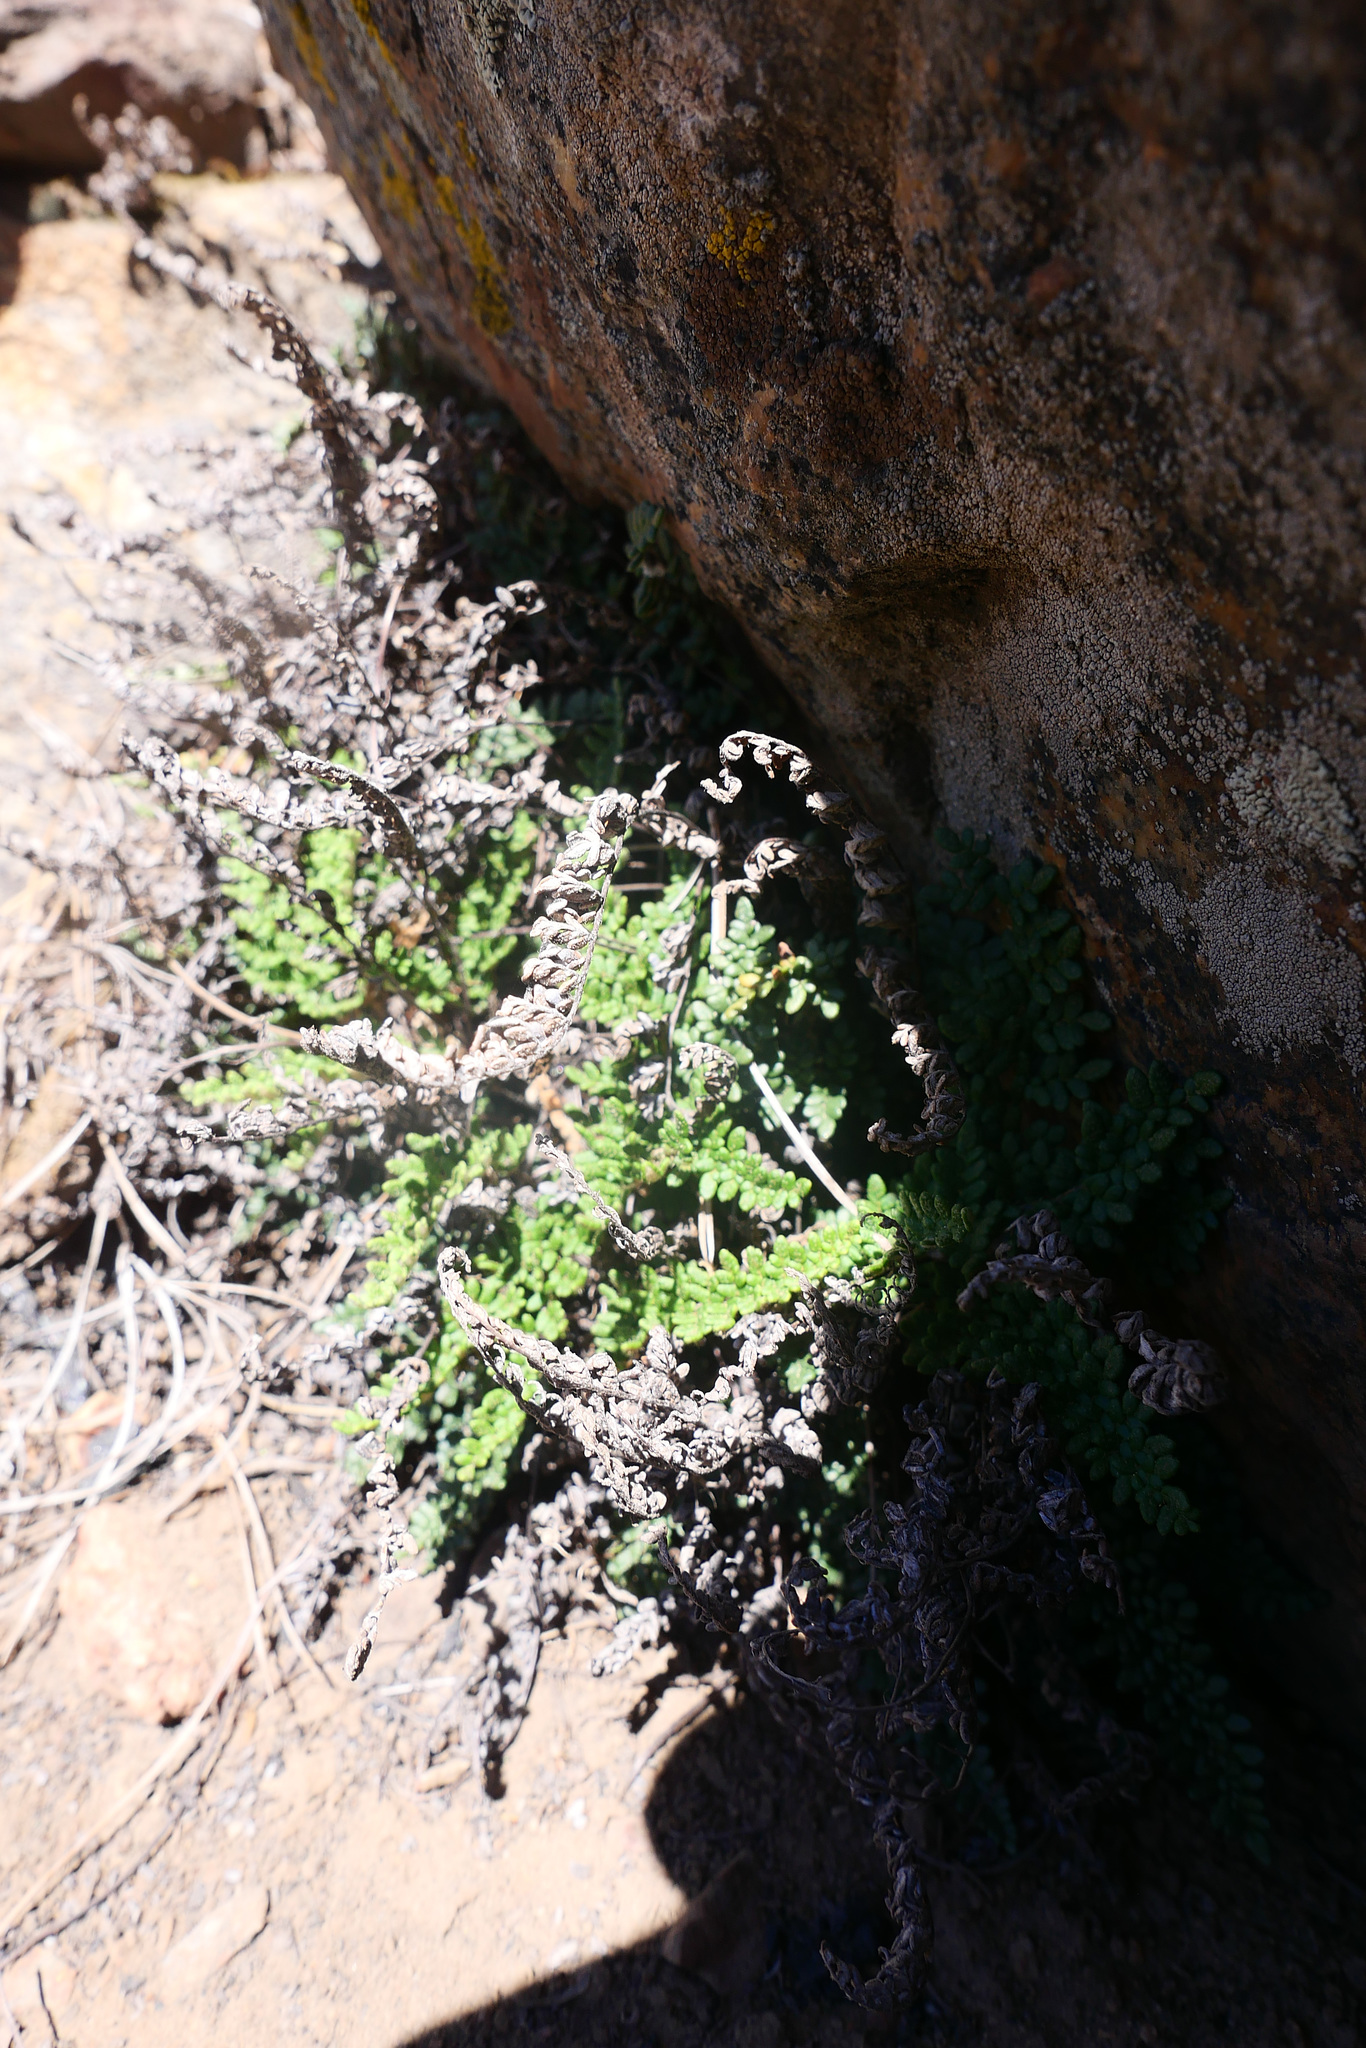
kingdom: Plantae
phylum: Tracheophyta
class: Polypodiopsida
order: Polypodiales
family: Pteridaceae
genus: Myriopteris
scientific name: Myriopteris gracillima
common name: Lace fern
